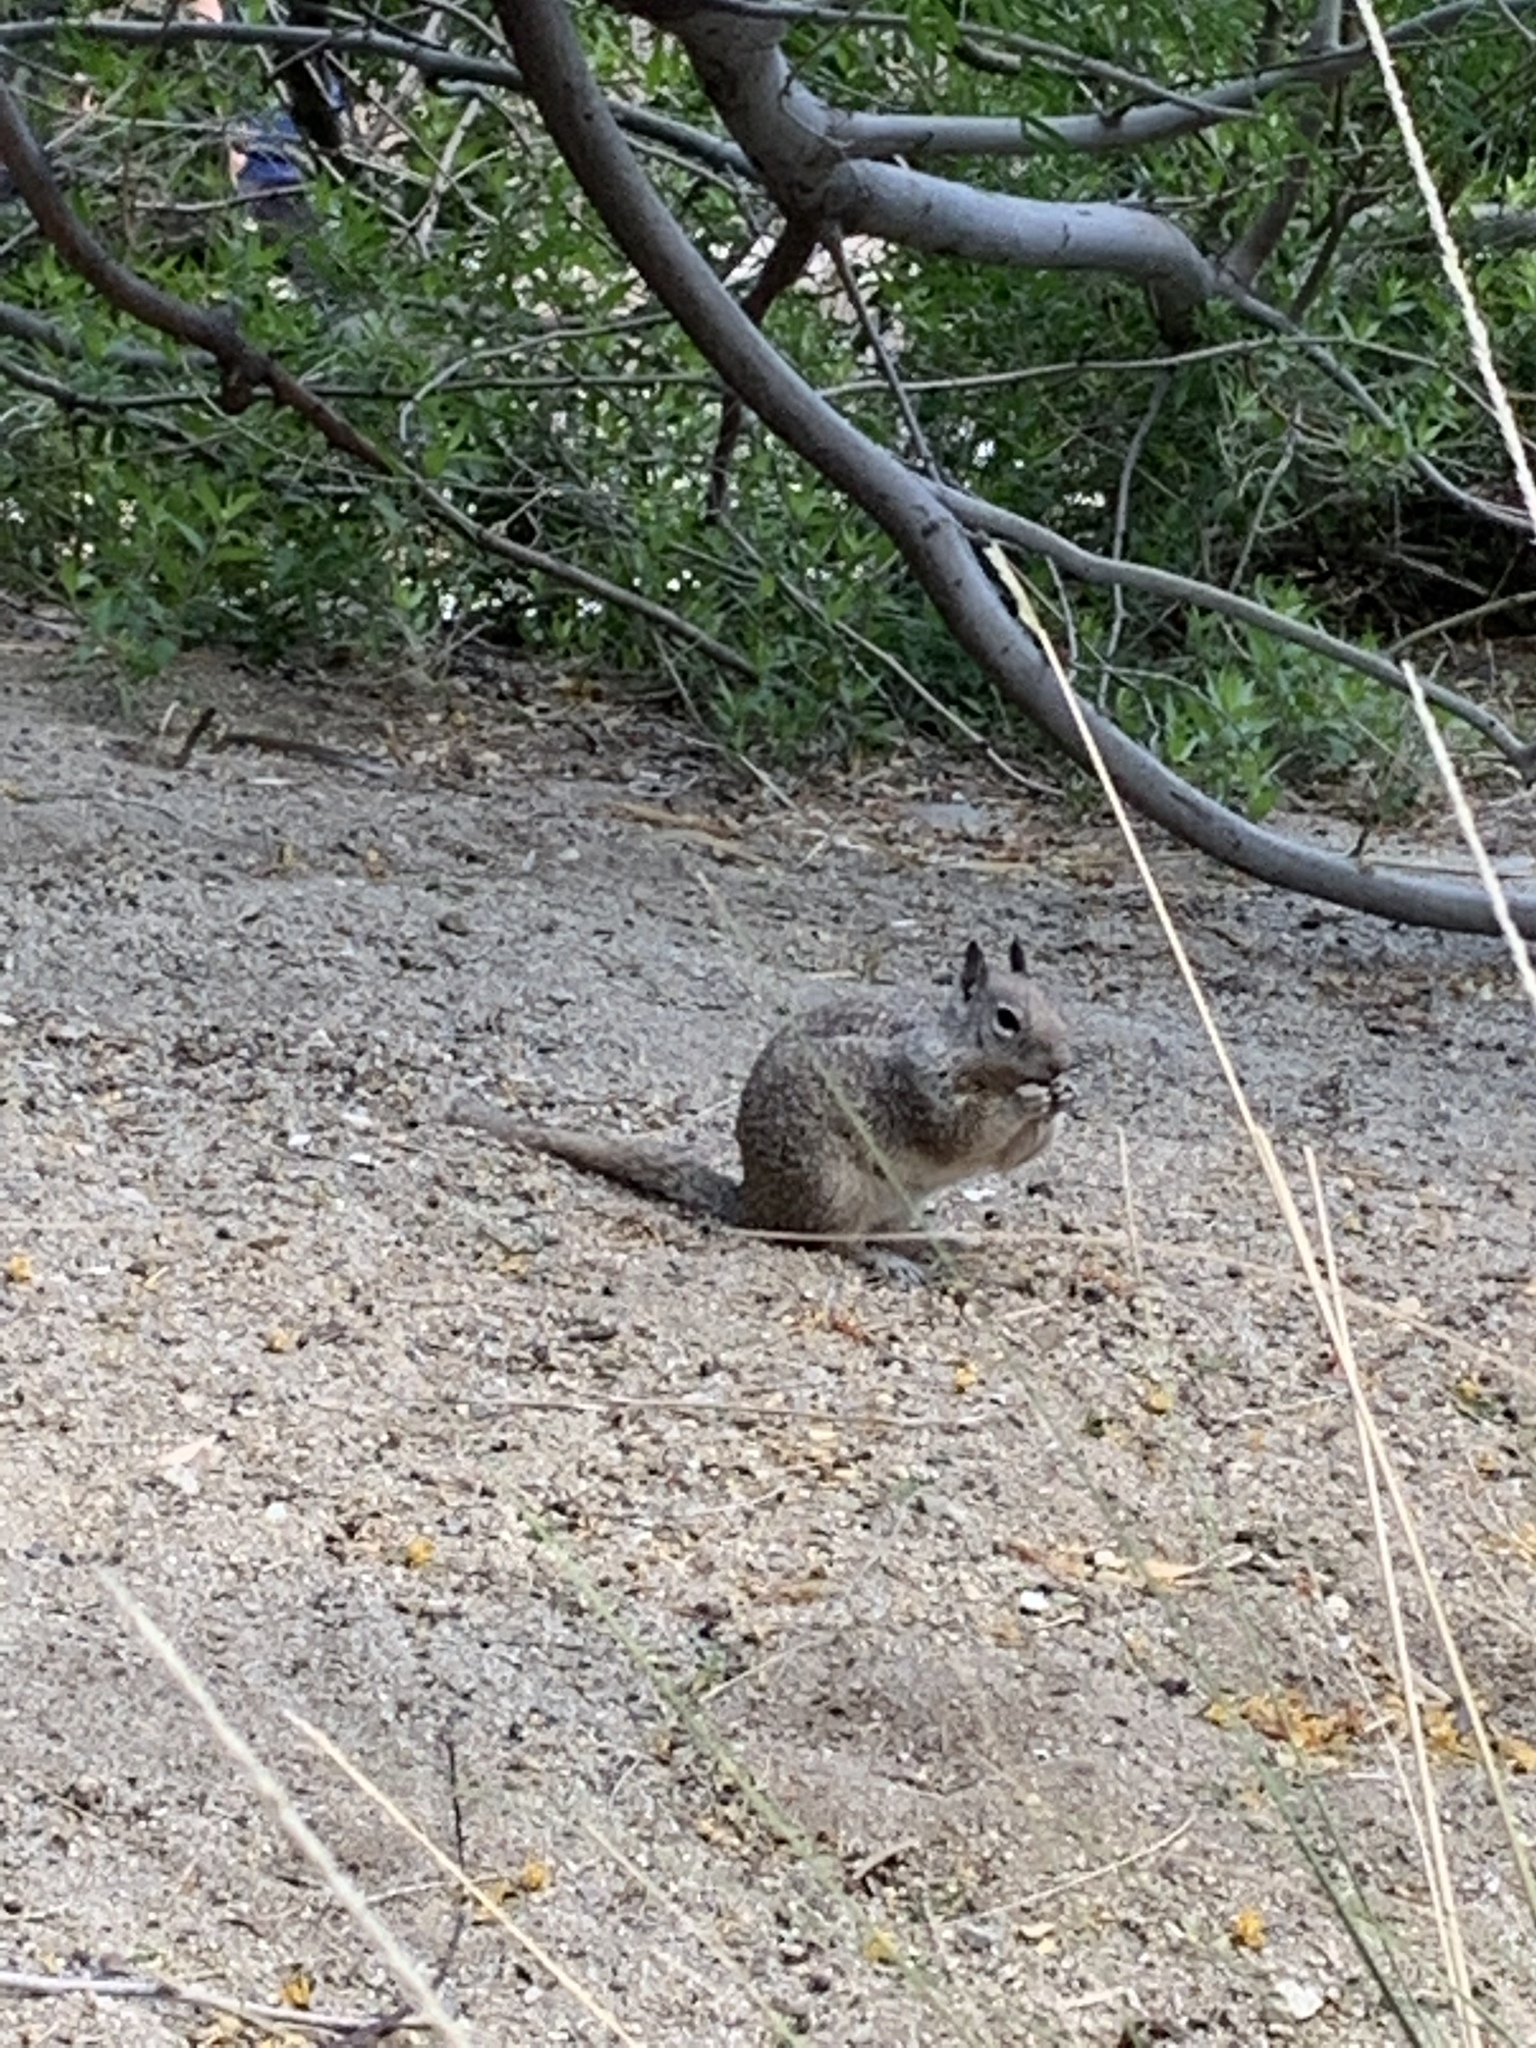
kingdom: Animalia
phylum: Chordata
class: Mammalia
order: Rodentia
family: Sciuridae
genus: Otospermophilus
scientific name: Otospermophilus beecheyi
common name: California ground squirrel
